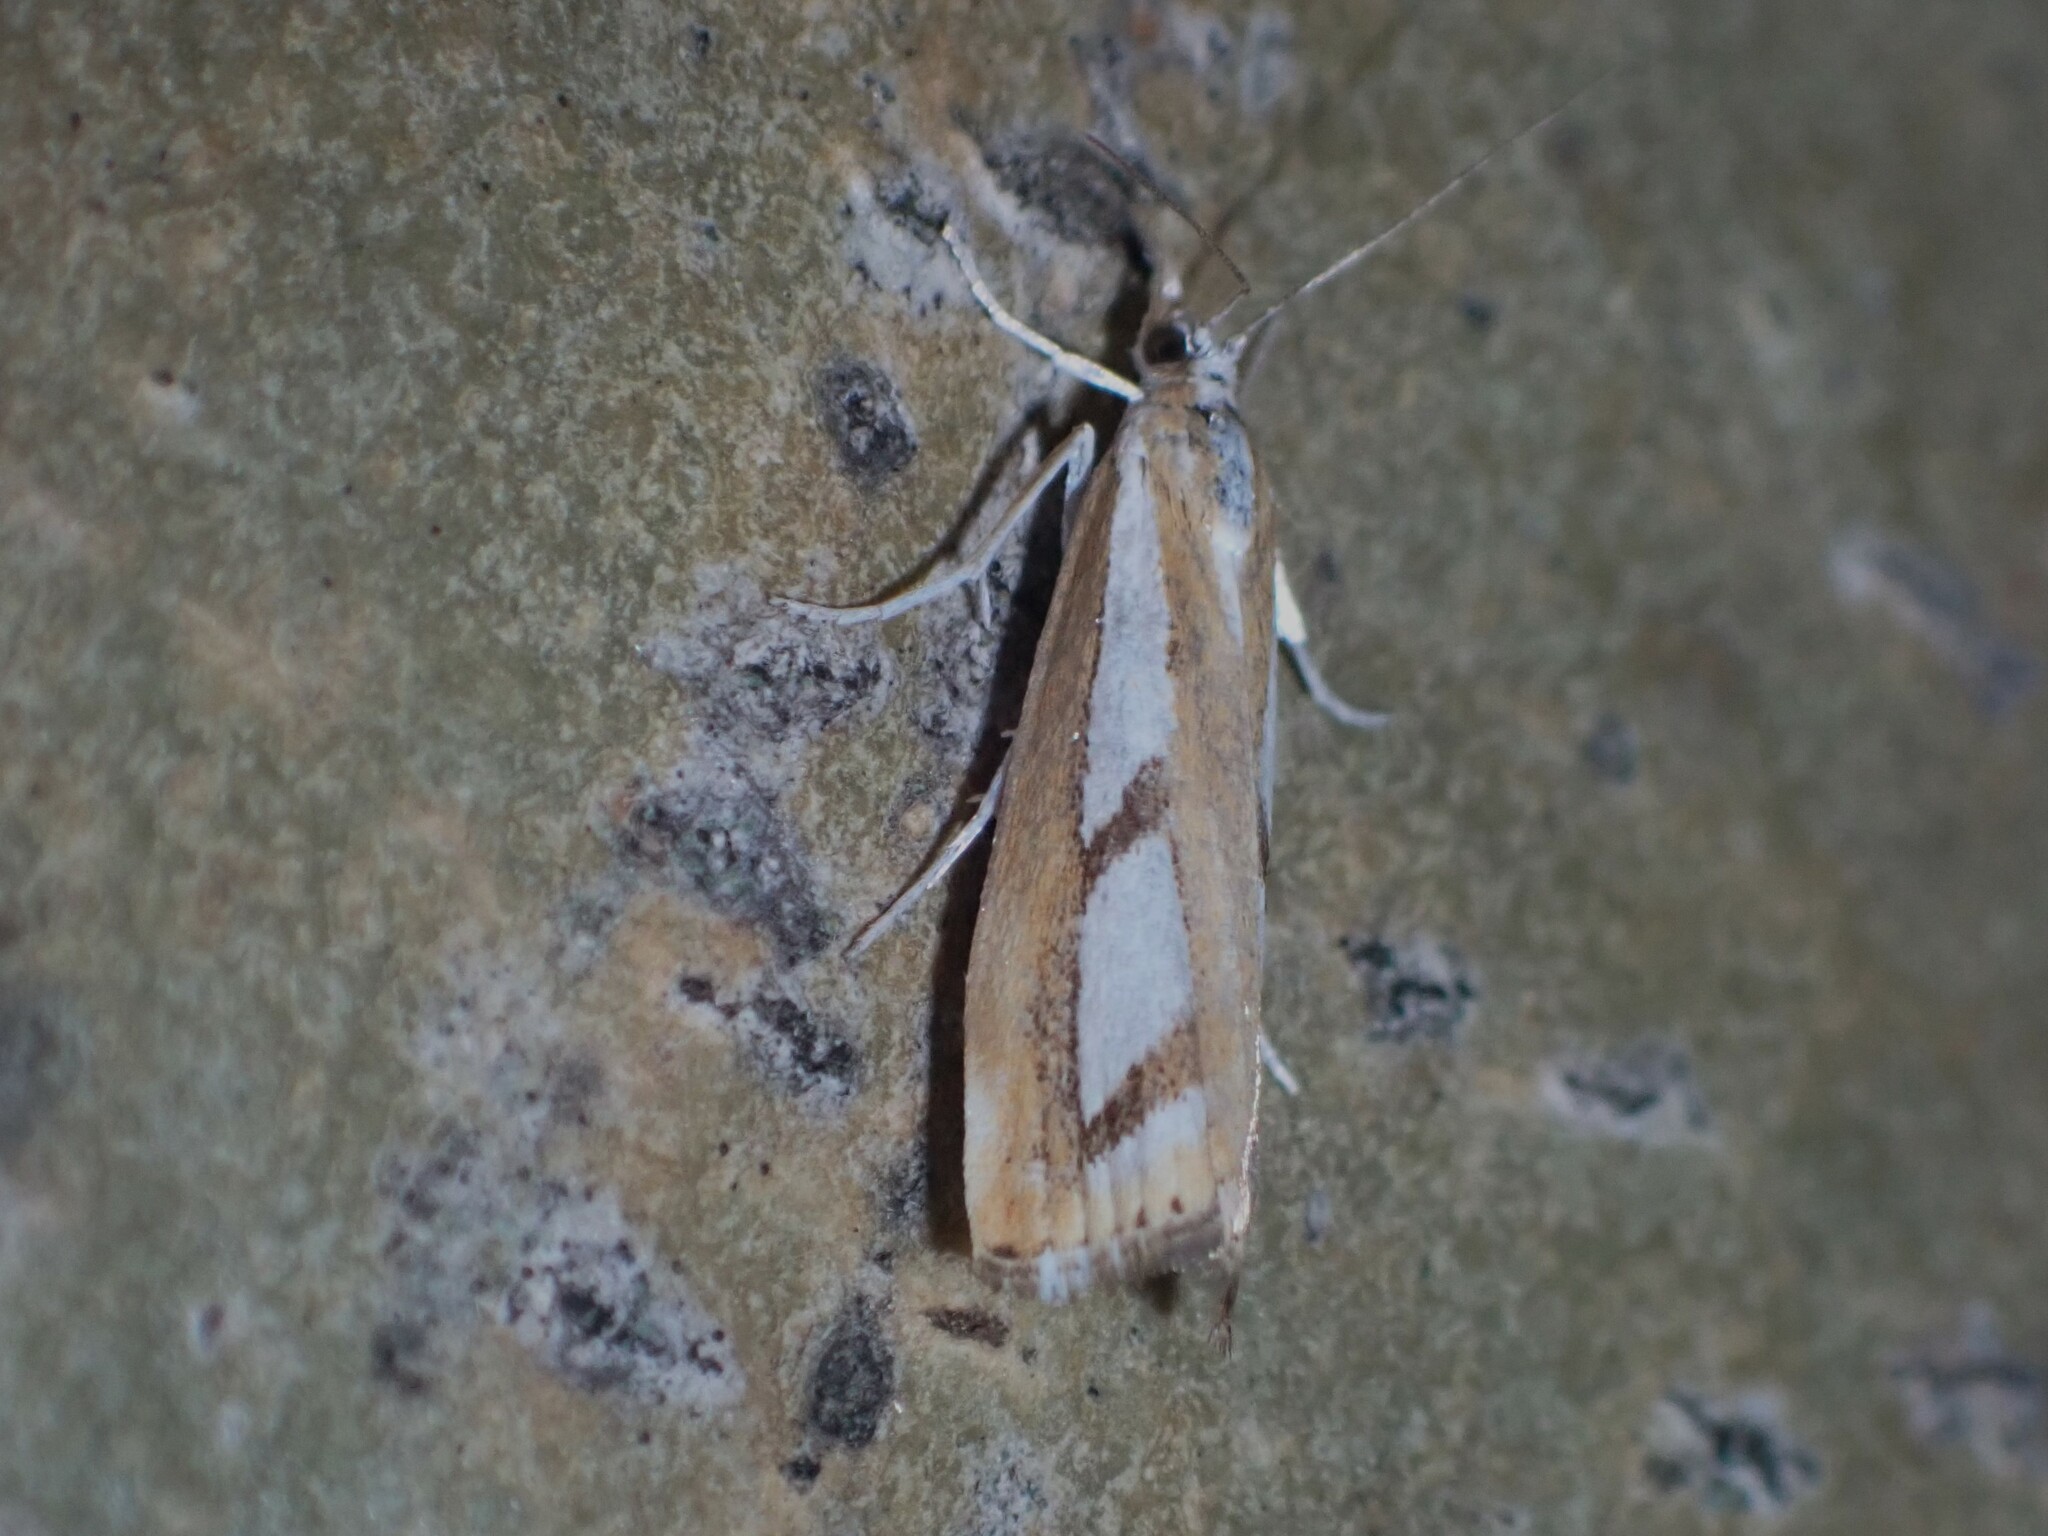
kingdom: Animalia
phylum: Arthropoda
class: Insecta
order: Lepidoptera
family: Crambidae
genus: Catoptria
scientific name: Catoptria latiradiellus
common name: Two-banded catoptria moth
